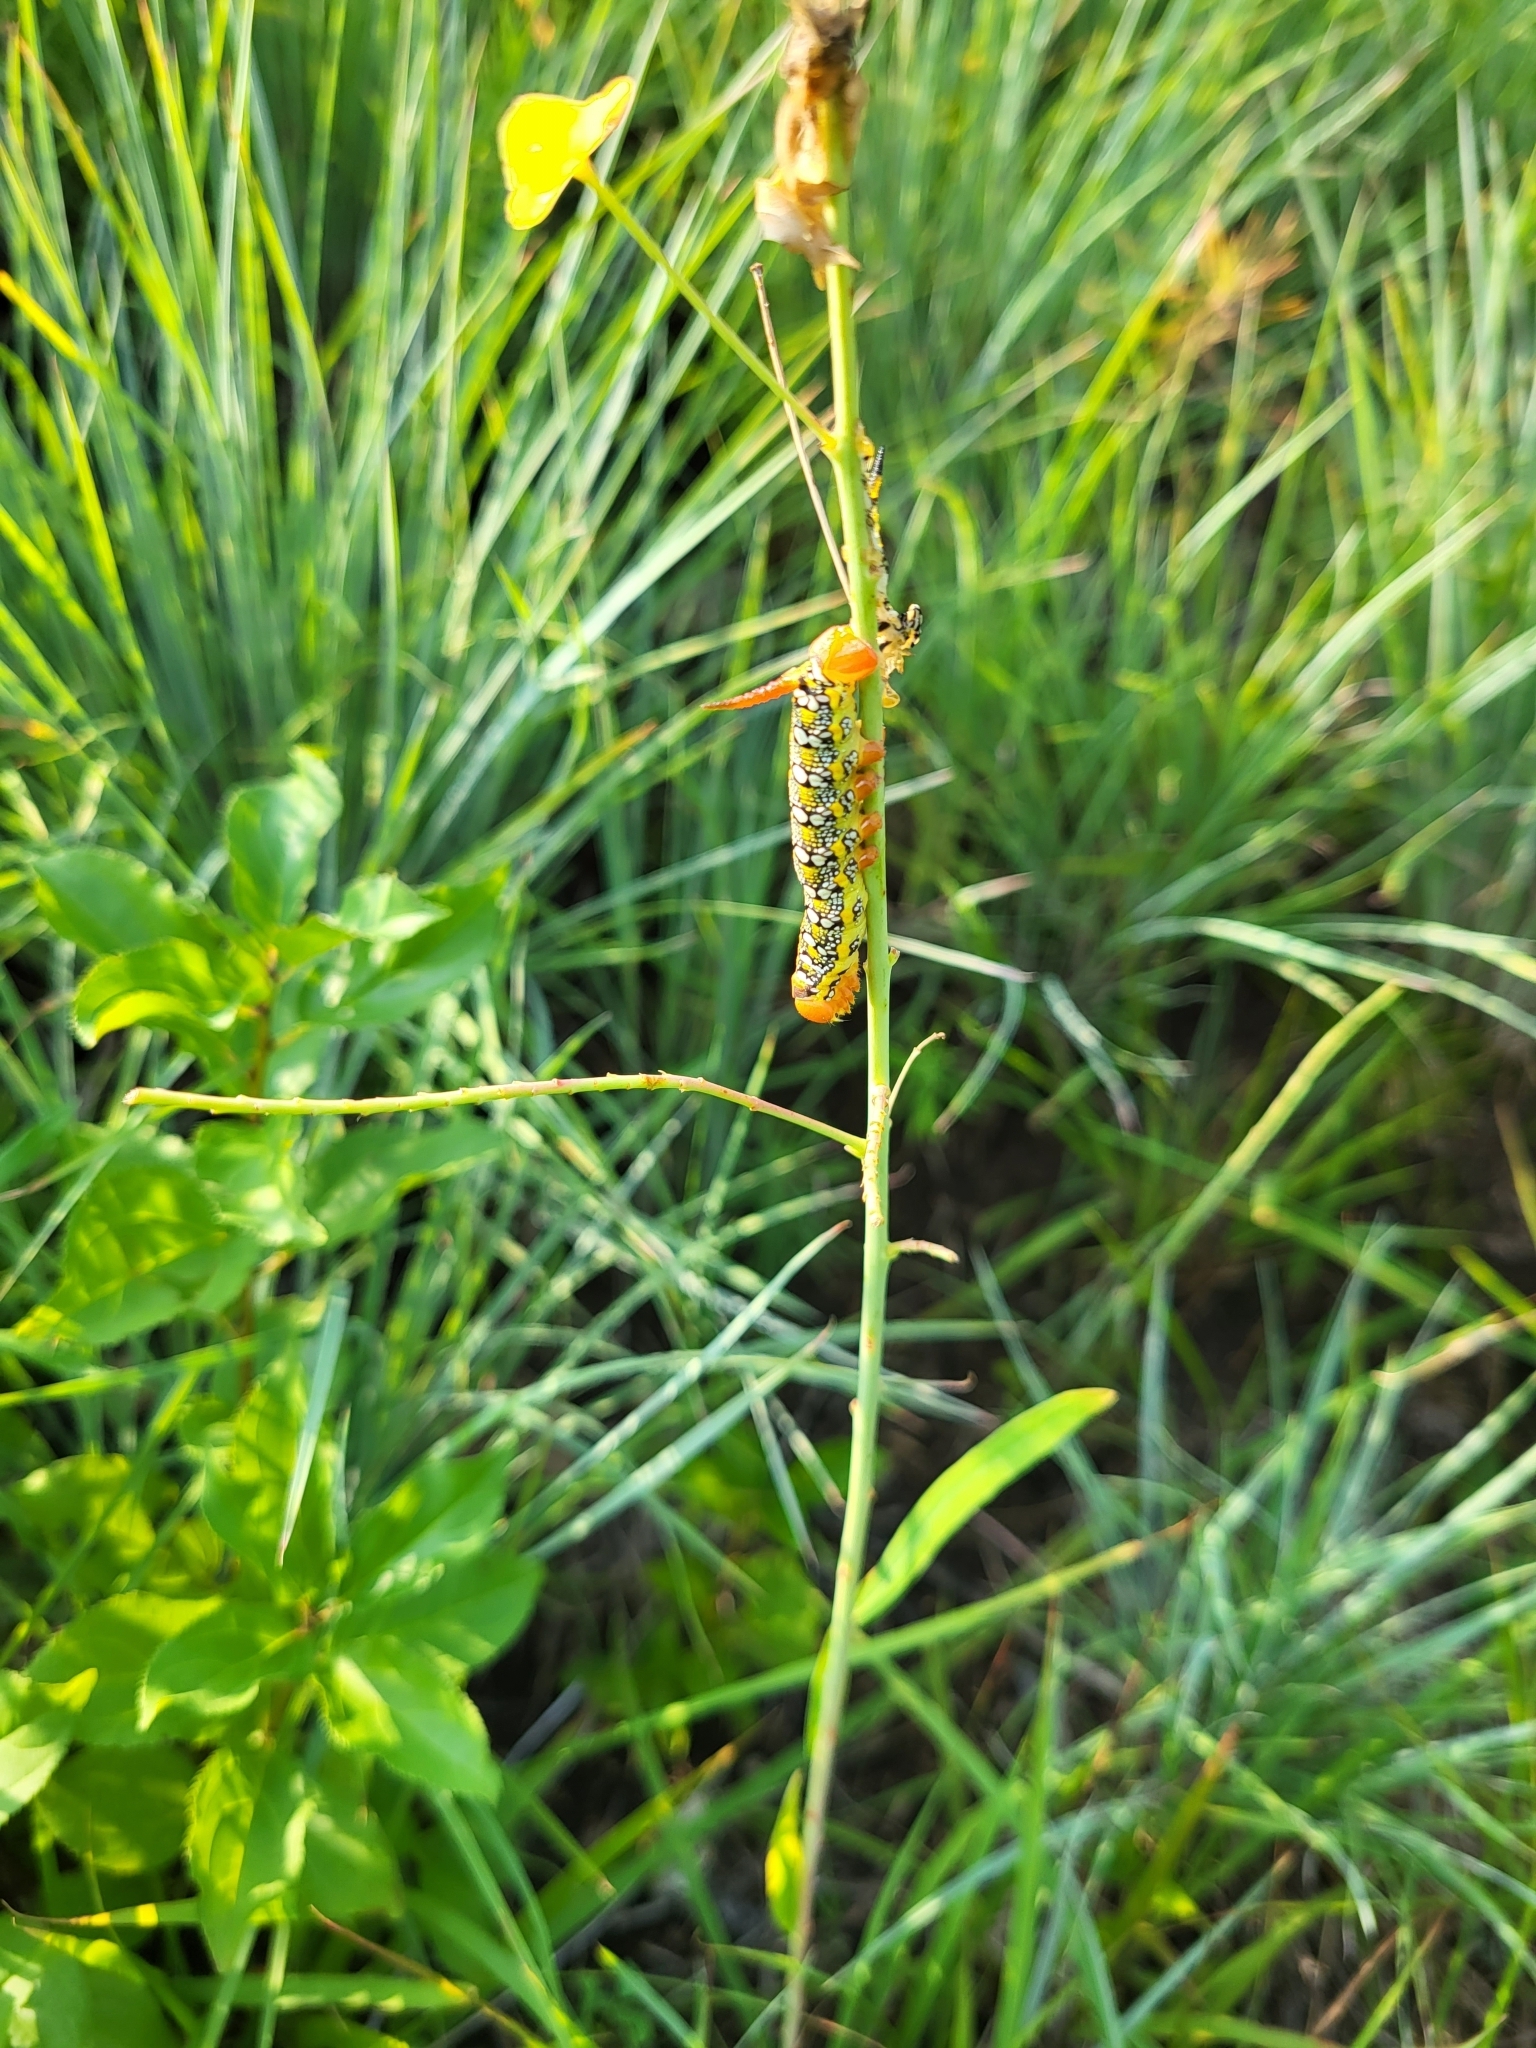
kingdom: Animalia
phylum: Arthropoda
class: Insecta
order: Lepidoptera
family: Sphingidae
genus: Hyles
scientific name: Hyles euphorbiae
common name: Spurge hawk-moth
